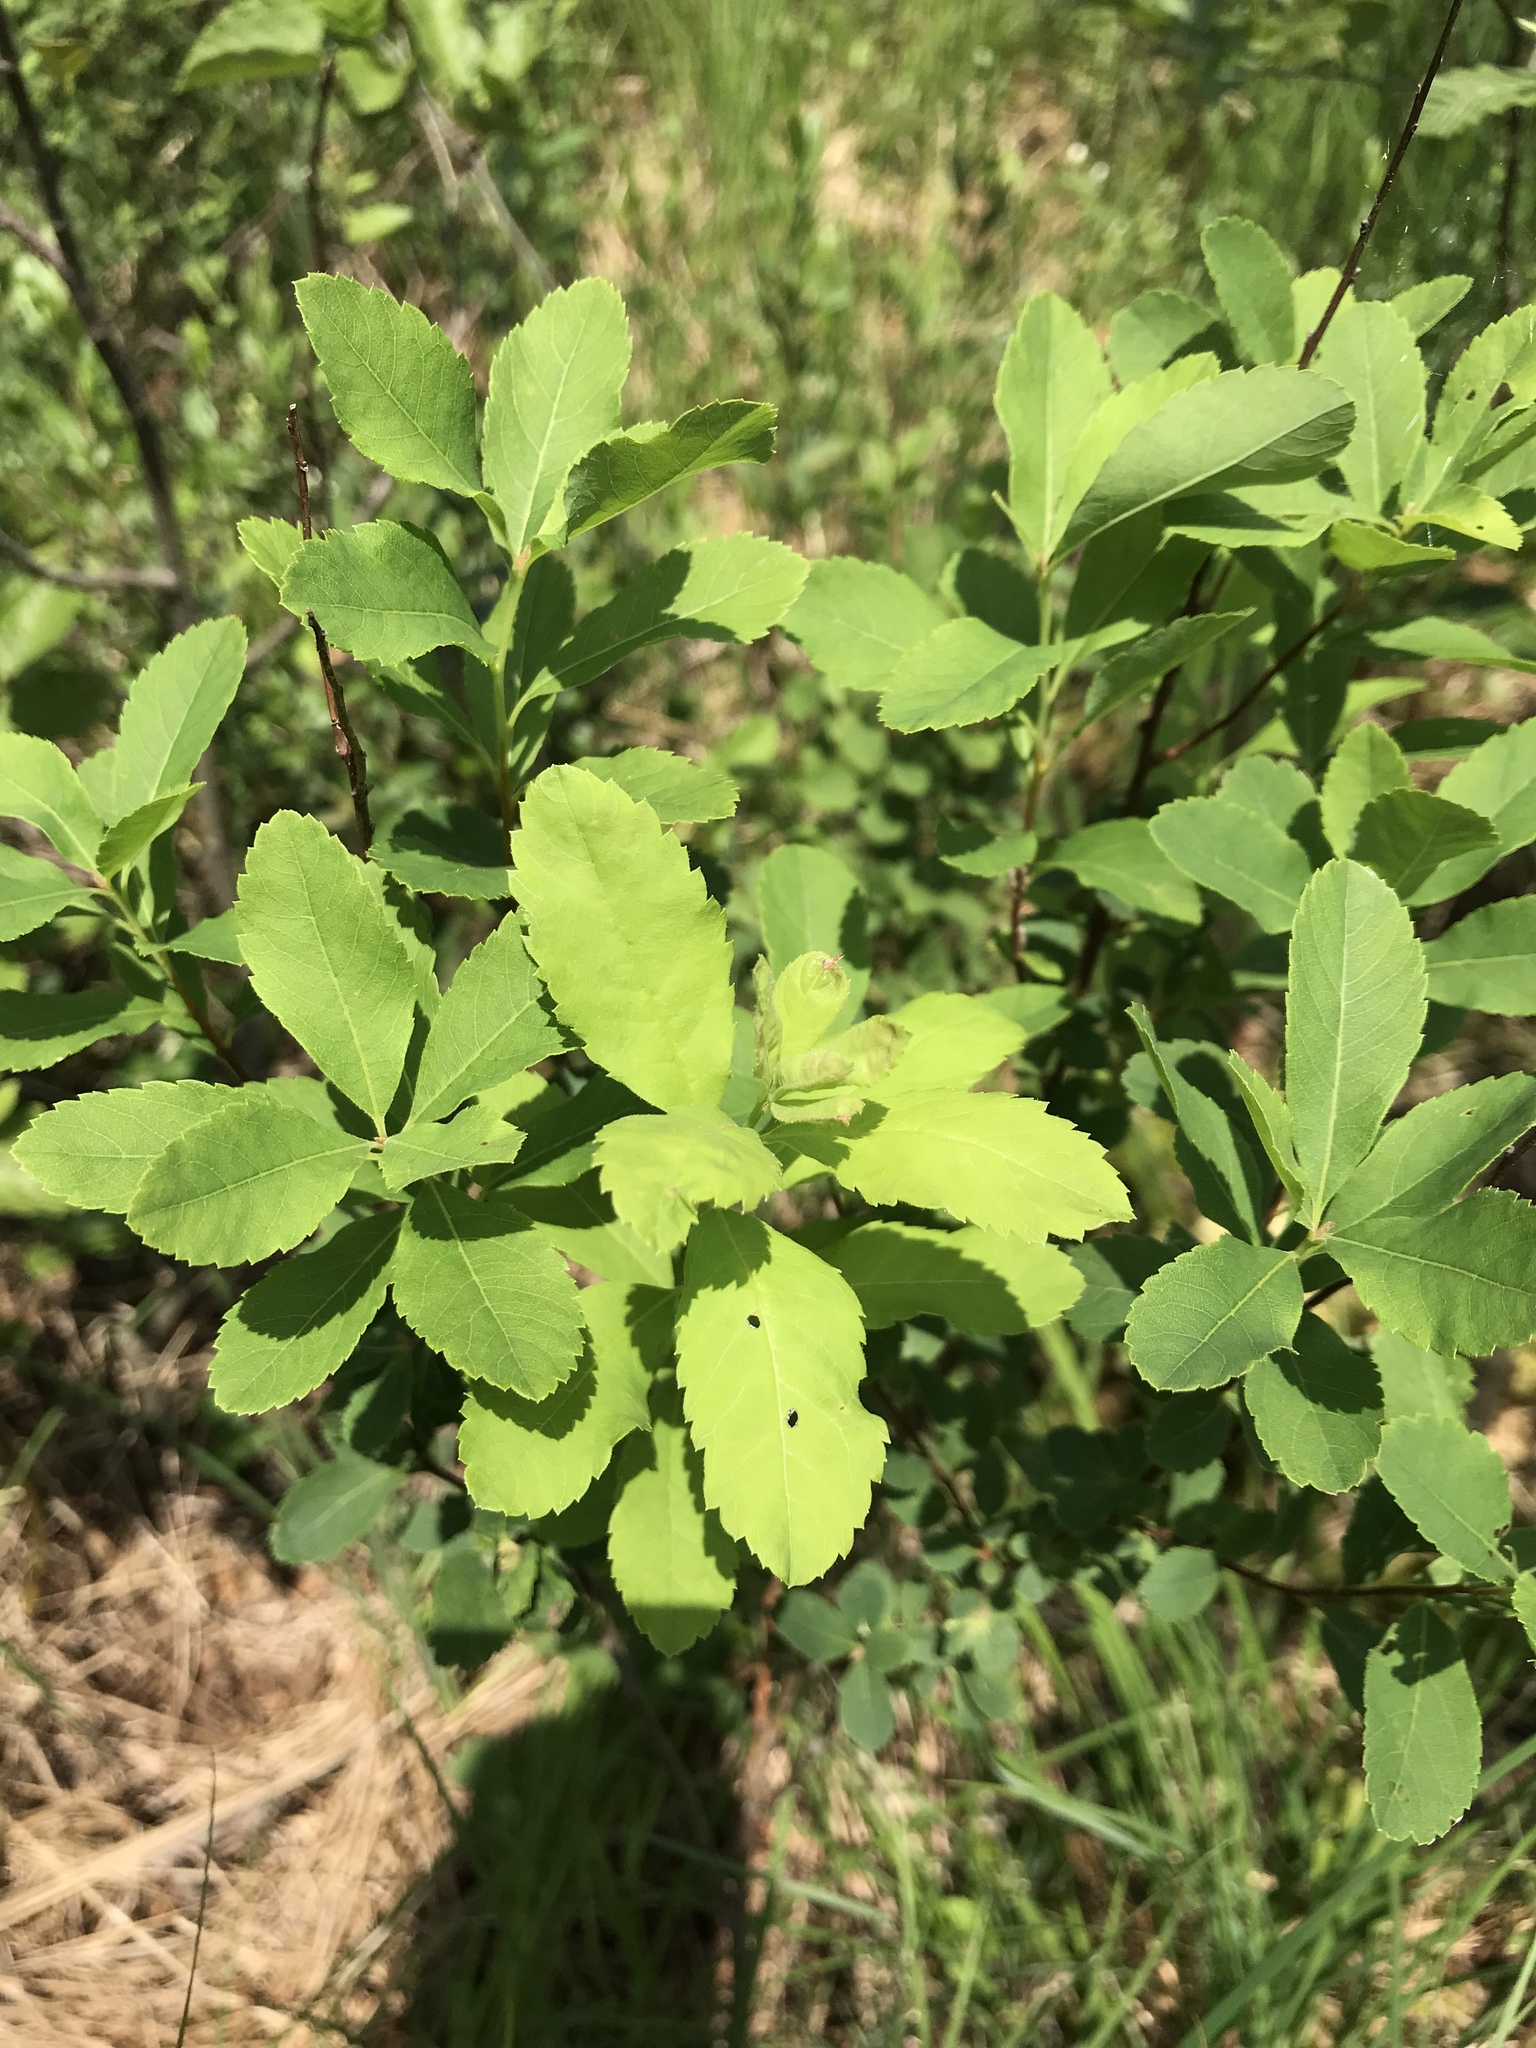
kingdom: Plantae
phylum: Tracheophyta
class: Magnoliopsida
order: Rosales
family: Rosaceae
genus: Spiraea
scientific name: Spiraea alba
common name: Pale bridewort
